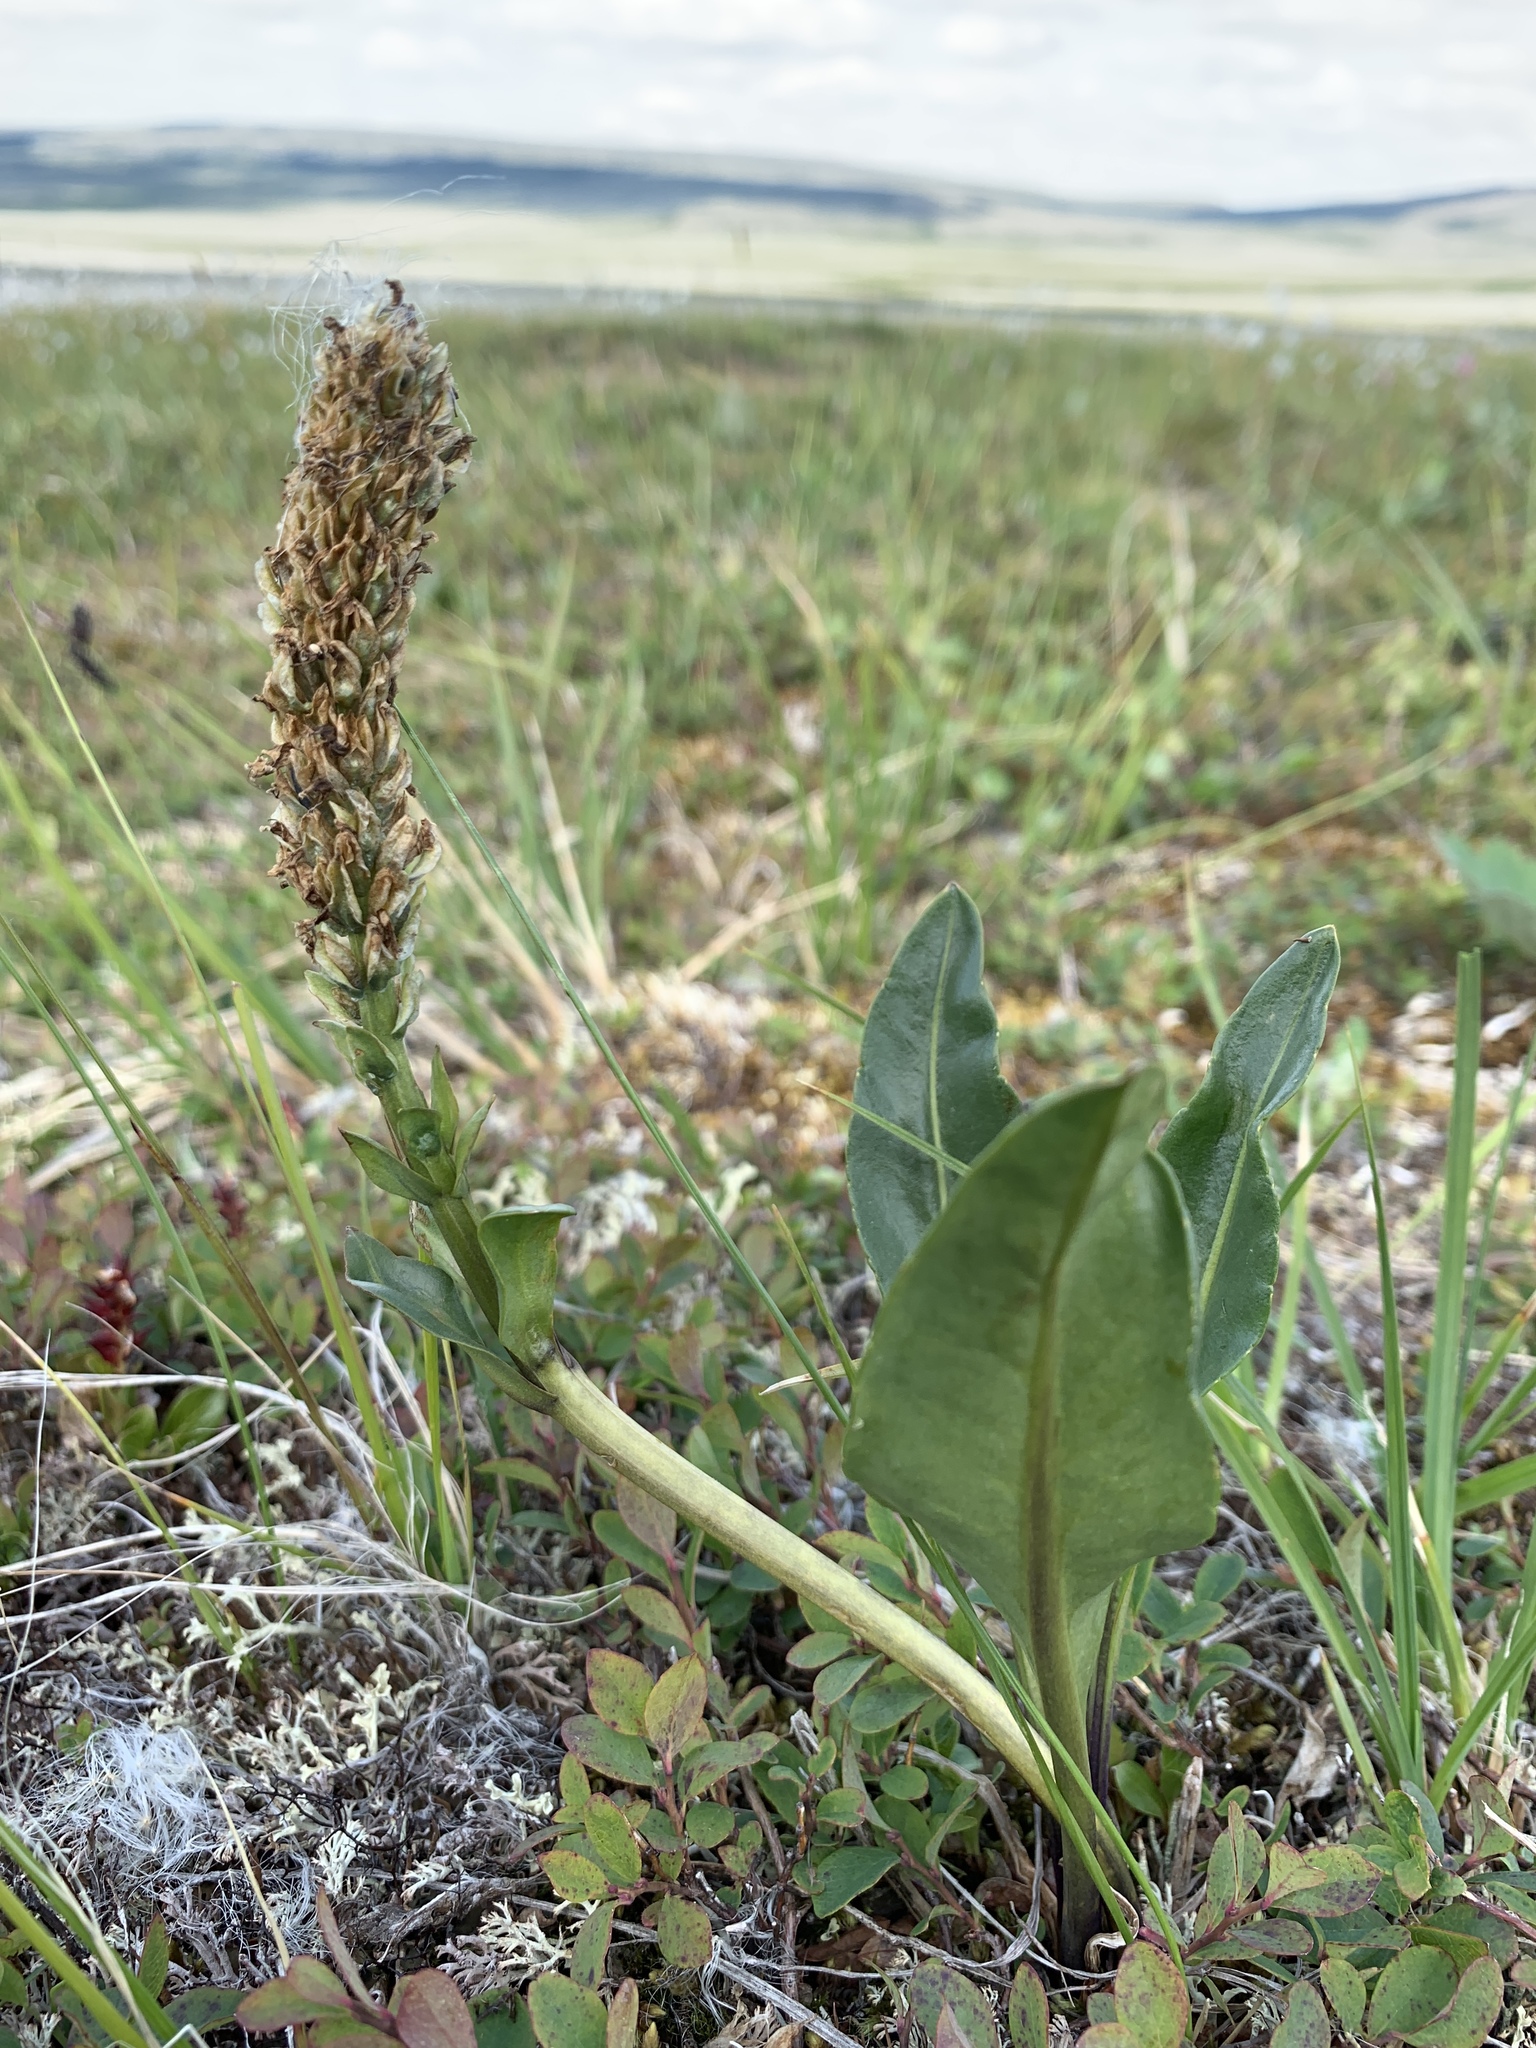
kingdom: Plantae
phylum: Tracheophyta
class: Magnoliopsida
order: Lamiales
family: Plantaginaceae
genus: Lagotis
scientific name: Lagotis glauca
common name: Glaucous weaselsnout
